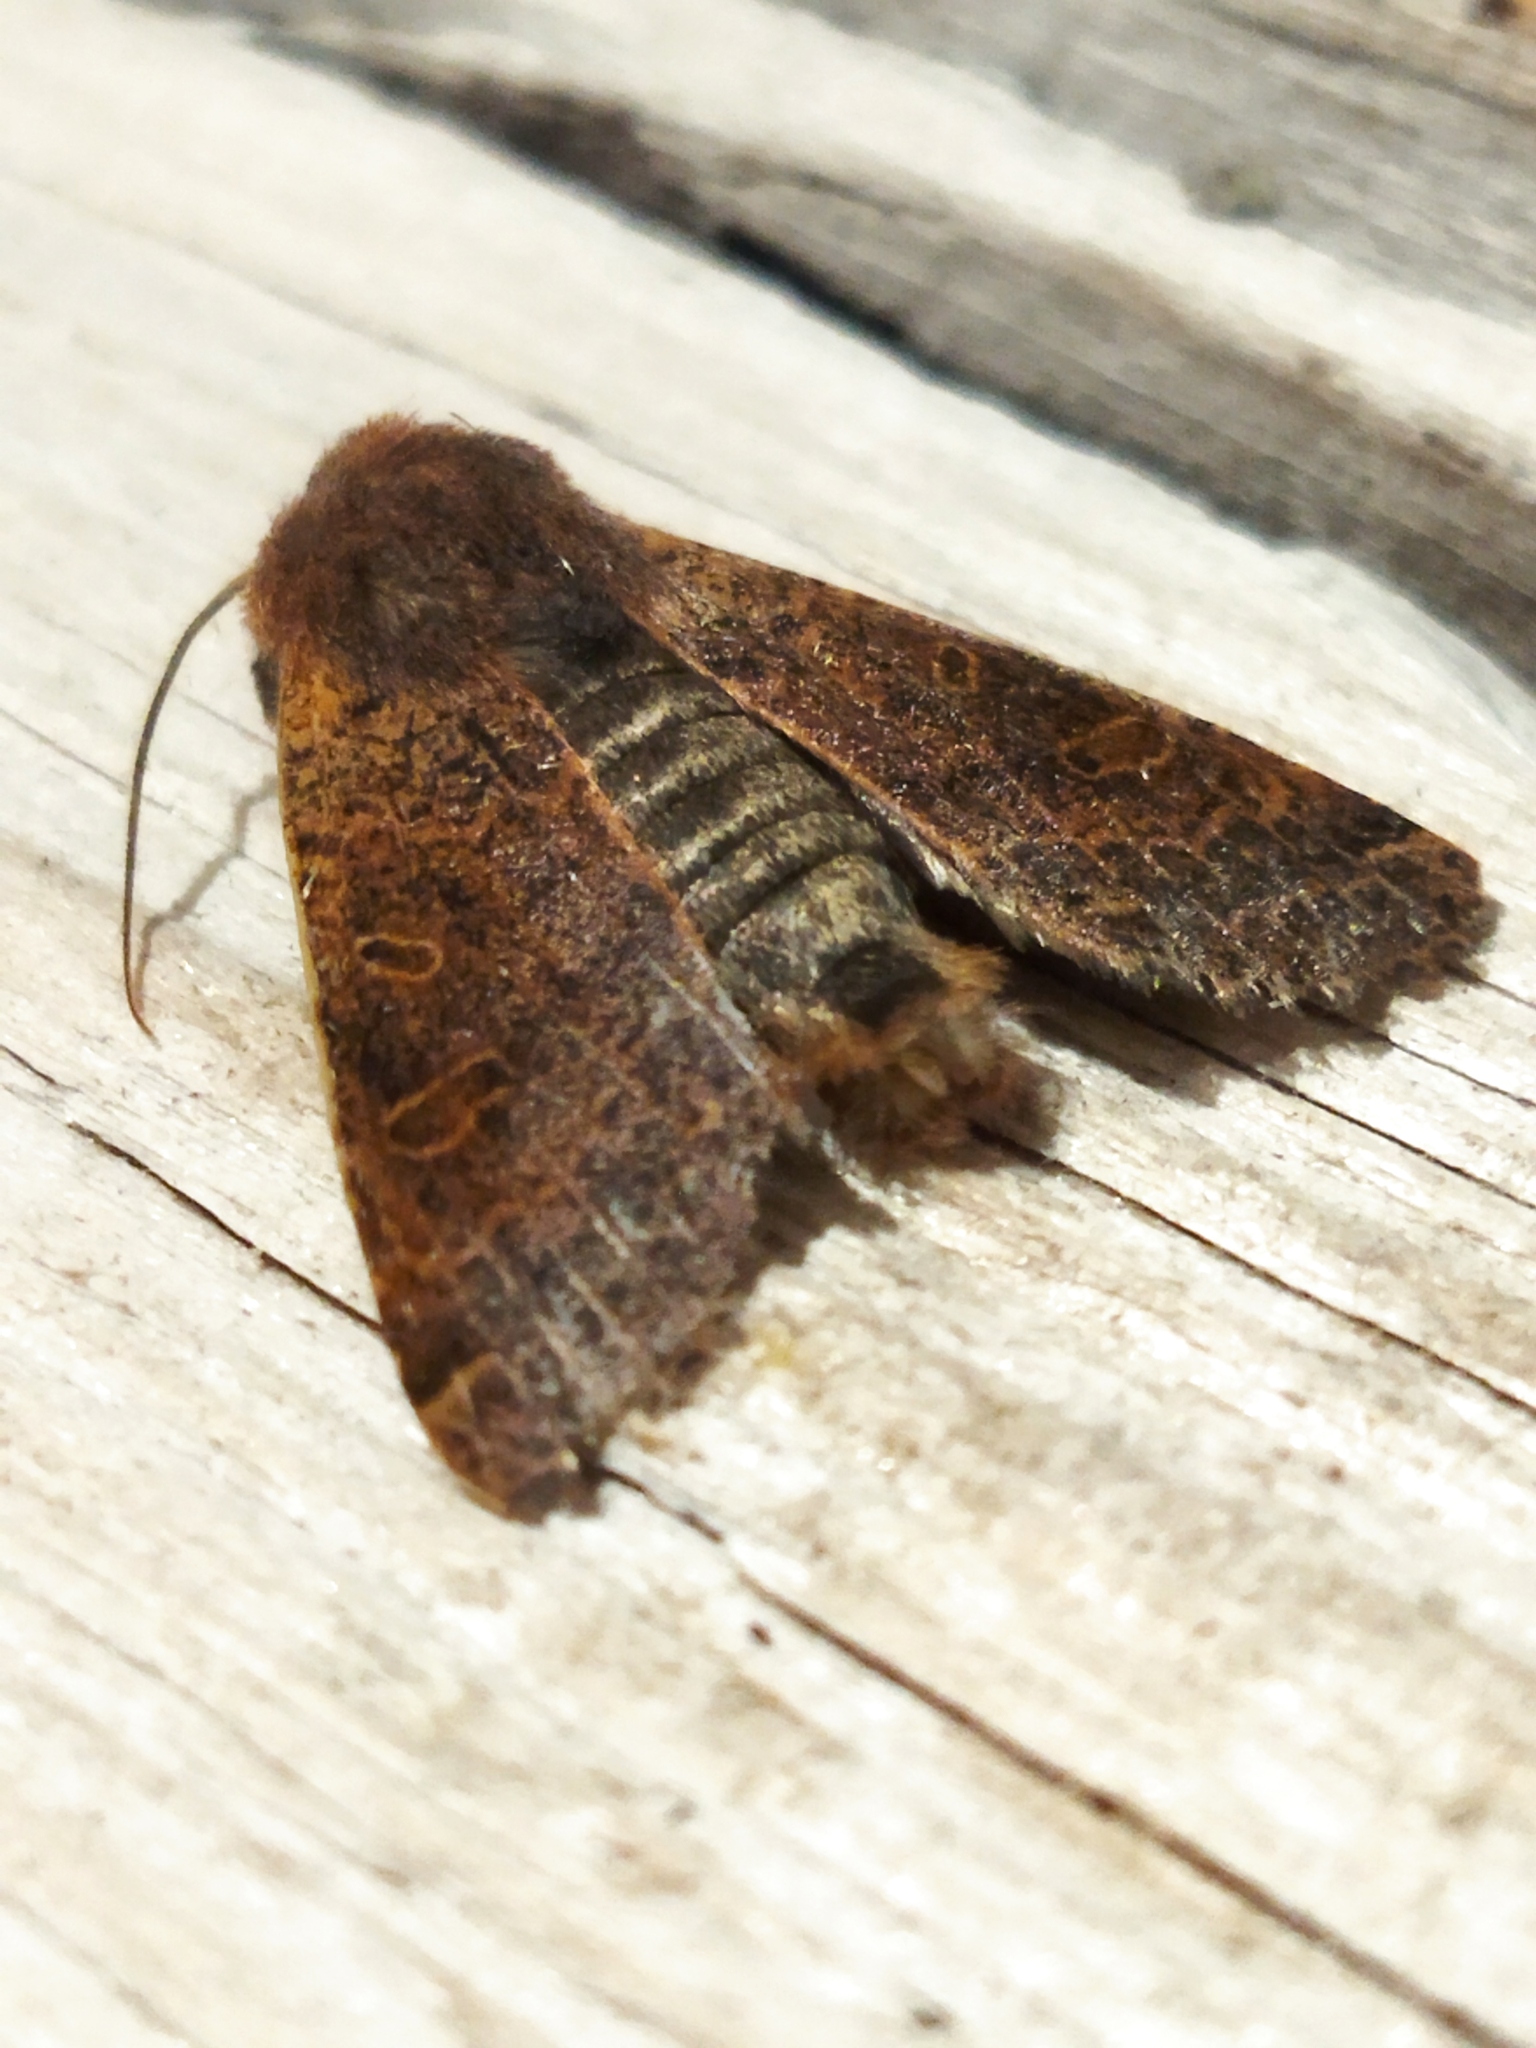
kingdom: Animalia
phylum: Arthropoda
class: Insecta
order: Lepidoptera
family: Noctuidae
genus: Agrochola
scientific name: Agrochola lychnidis
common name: Beaded chestnut
